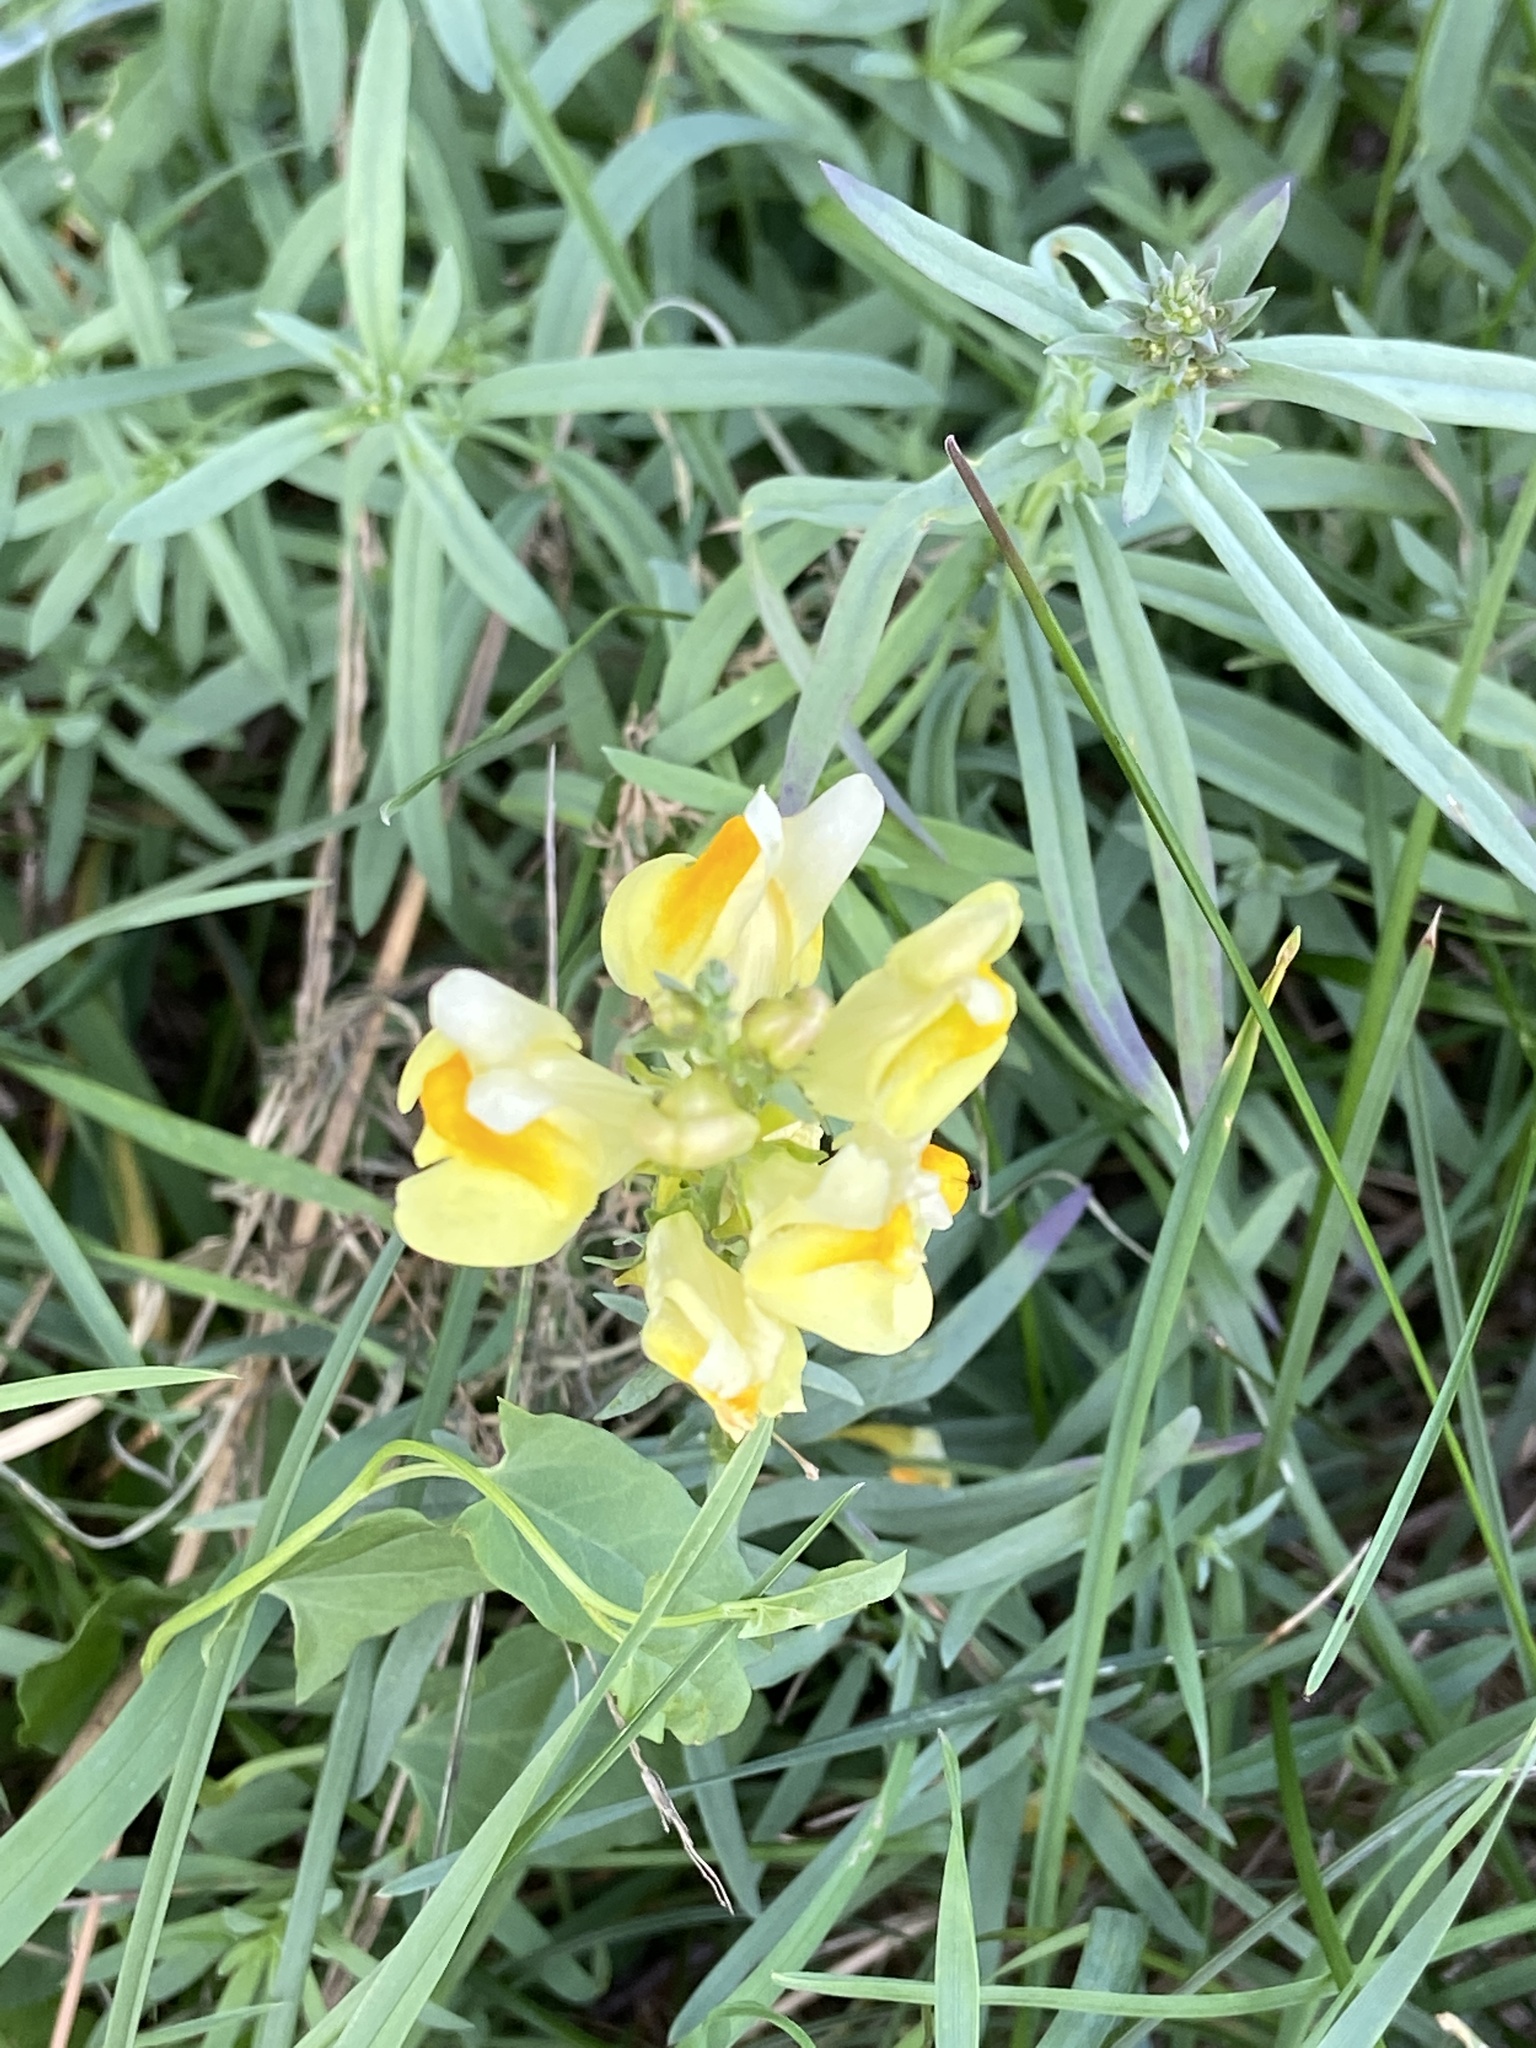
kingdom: Plantae
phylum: Tracheophyta
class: Magnoliopsida
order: Lamiales
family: Plantaginaceae
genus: Linaria
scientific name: Linaria vulgaris
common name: Butter and eggs
